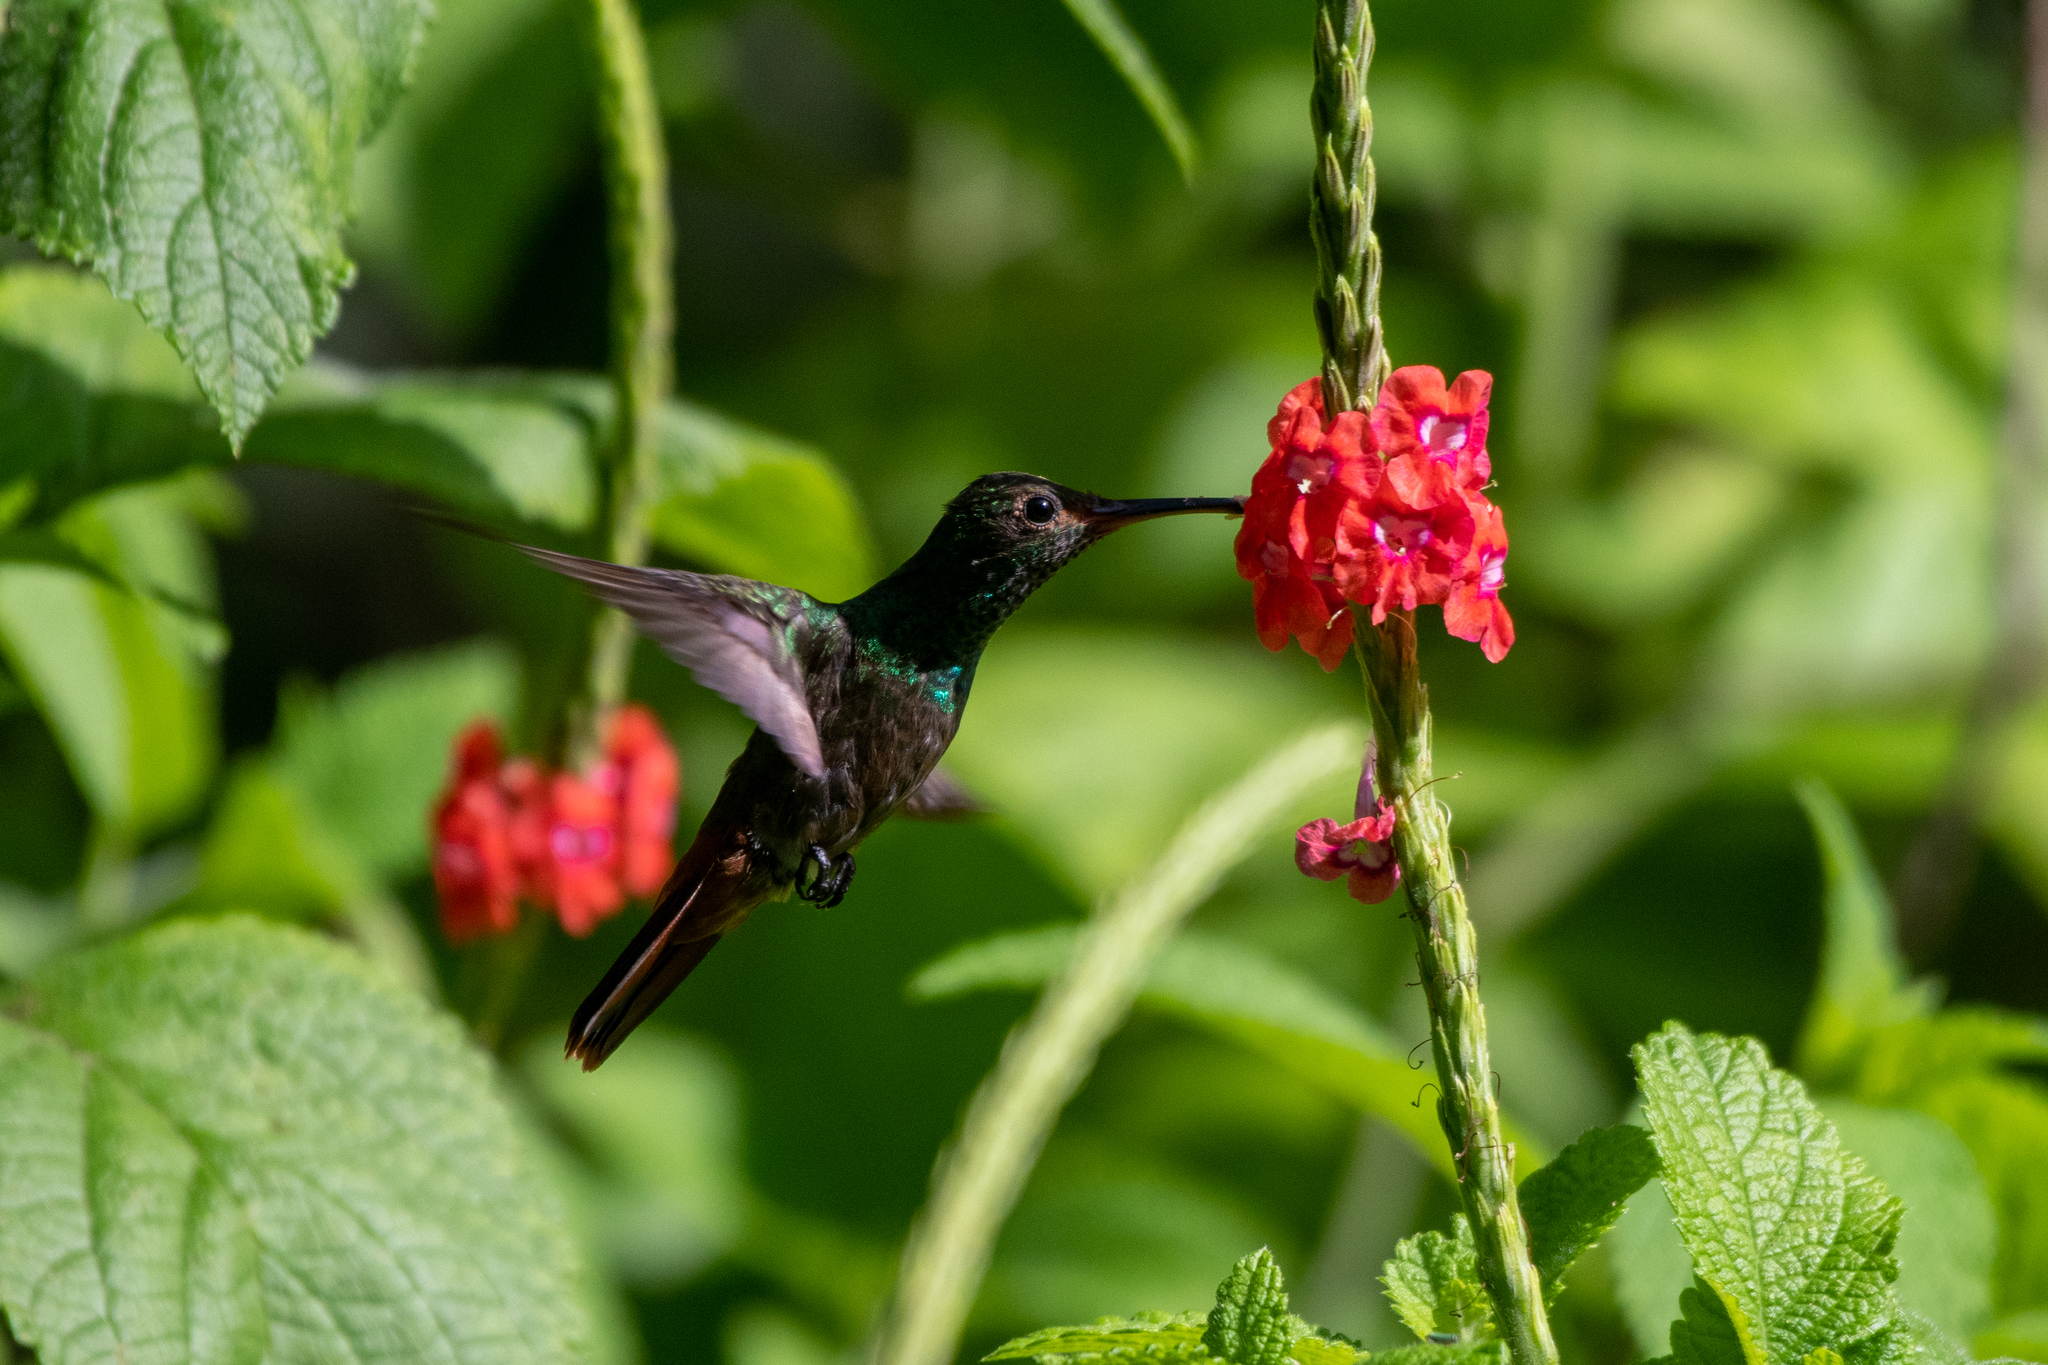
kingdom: Animalia
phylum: Chordata
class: Aves
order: Apodiformes
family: Trochilidae
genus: Amazilia
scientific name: Amazilia tzacatl
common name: Rufous-tailed hummingbird
